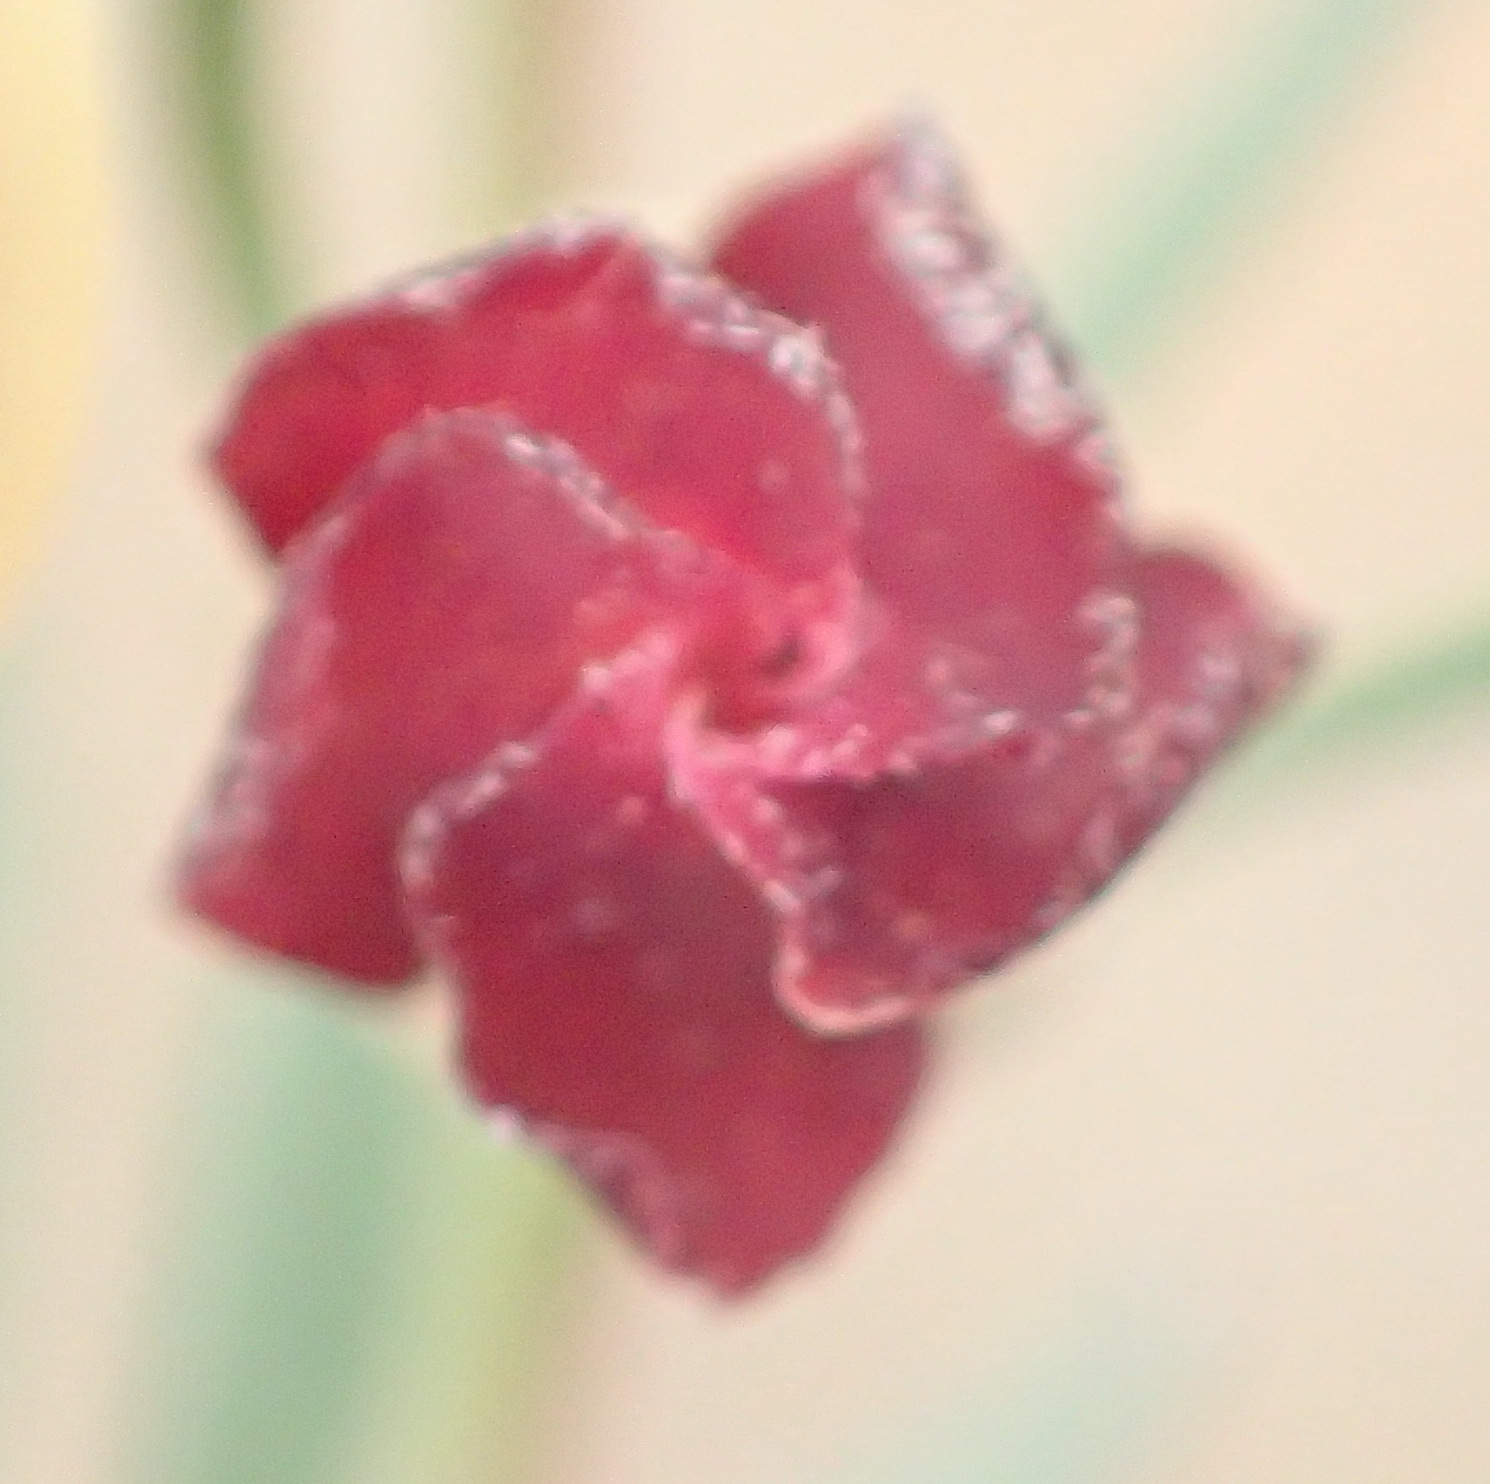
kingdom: Plantae
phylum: Tracheophyta
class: Magnoliopsida
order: Malvales
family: Malvaceae
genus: Hermannia
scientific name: Hermannia gracilis
